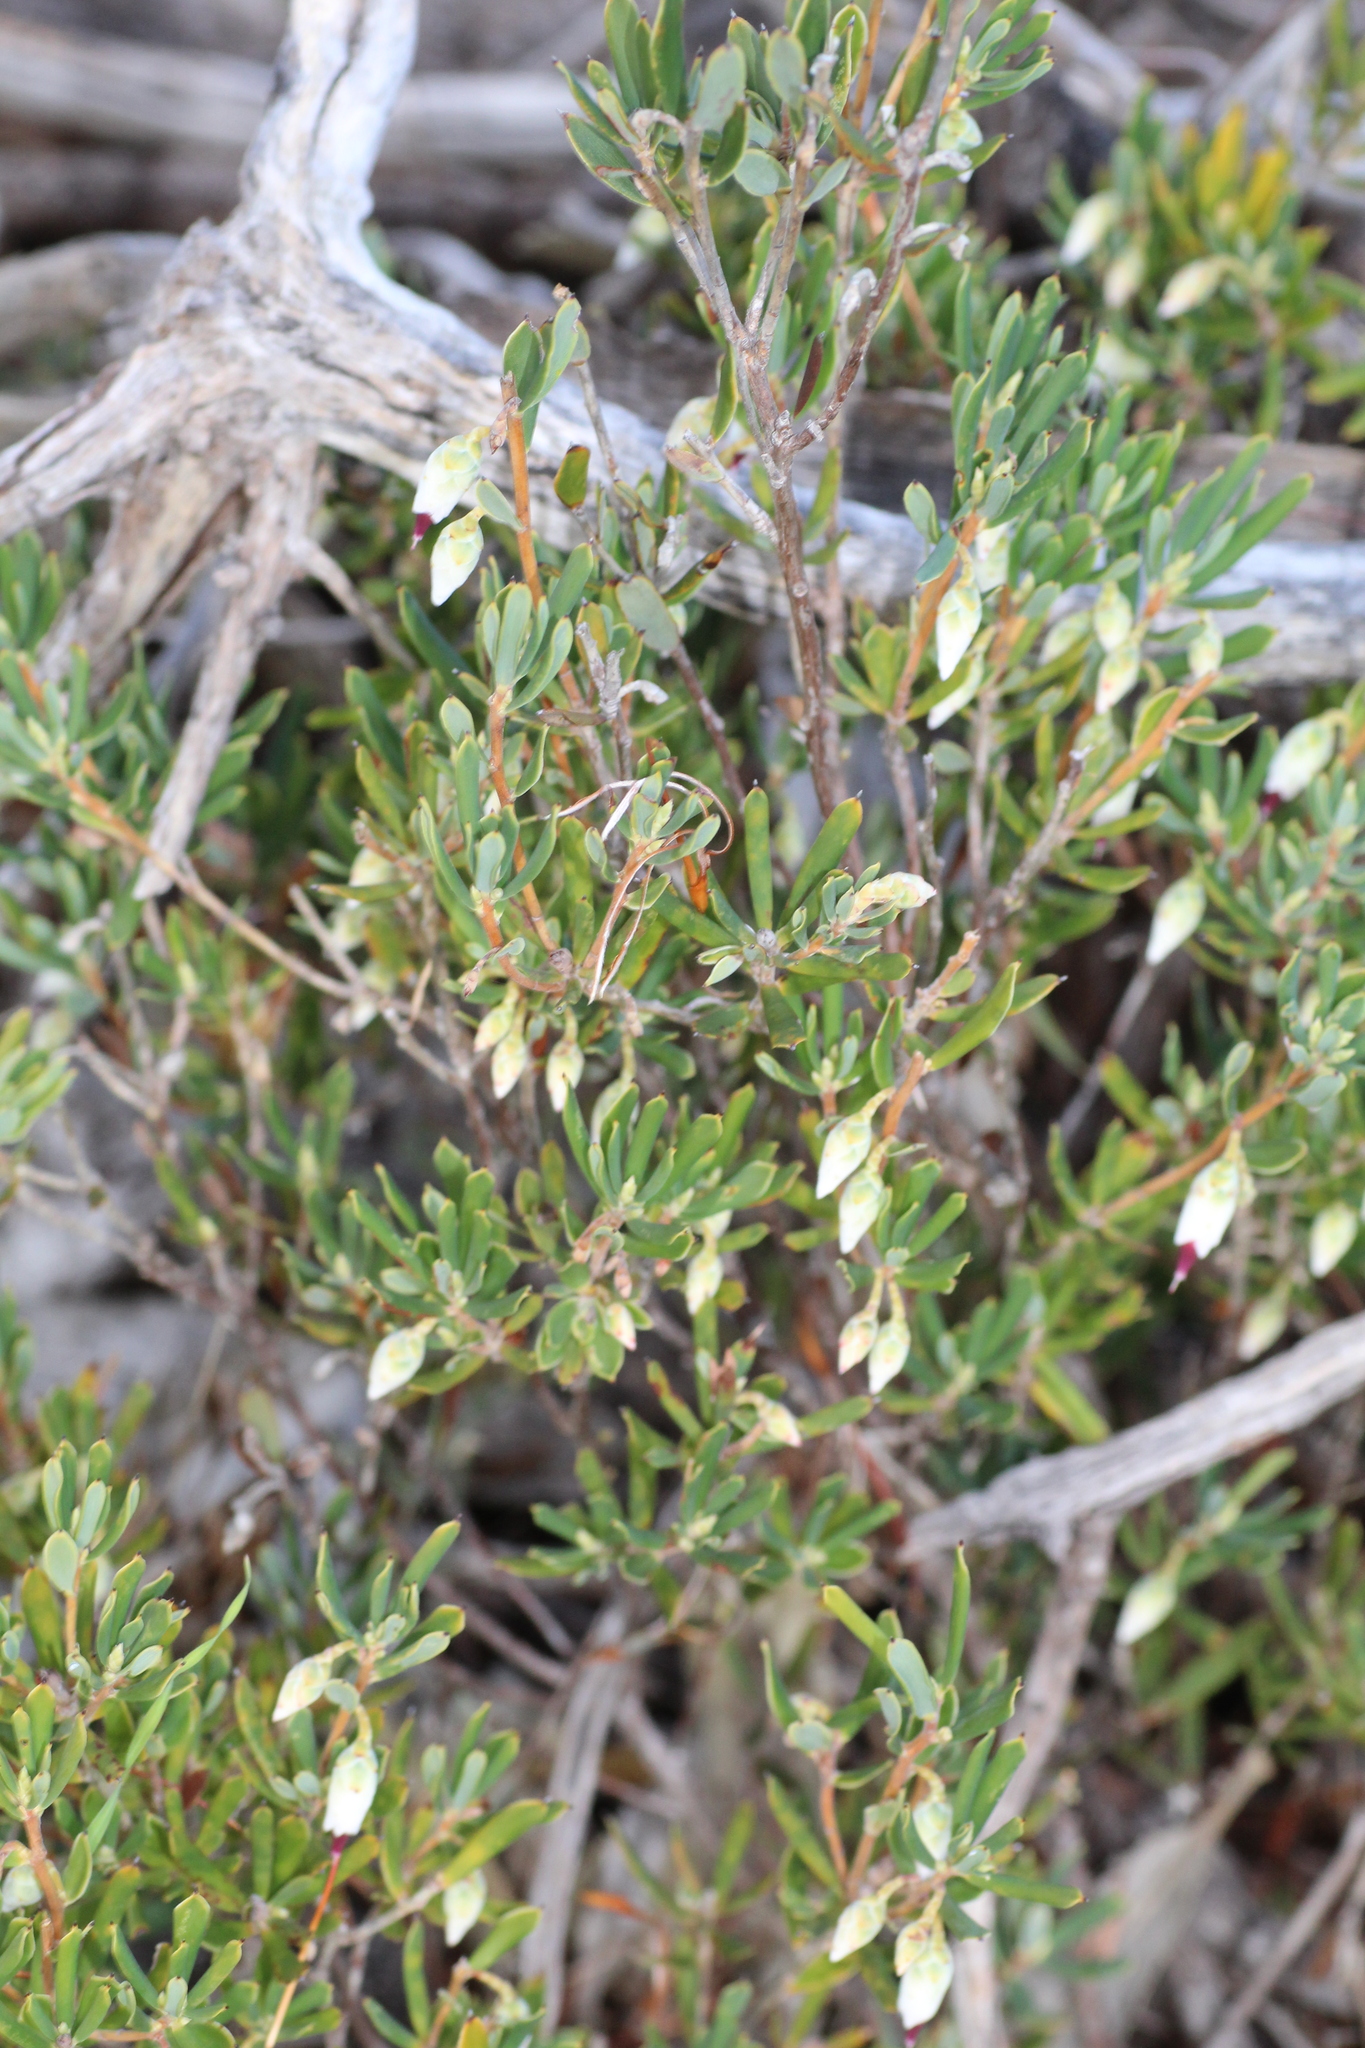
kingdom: Plantae
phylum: Tracheophyta
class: Magnoliopsida
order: Ericales
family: Ericaceae
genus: Conostephium
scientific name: Conostephium pendulum
